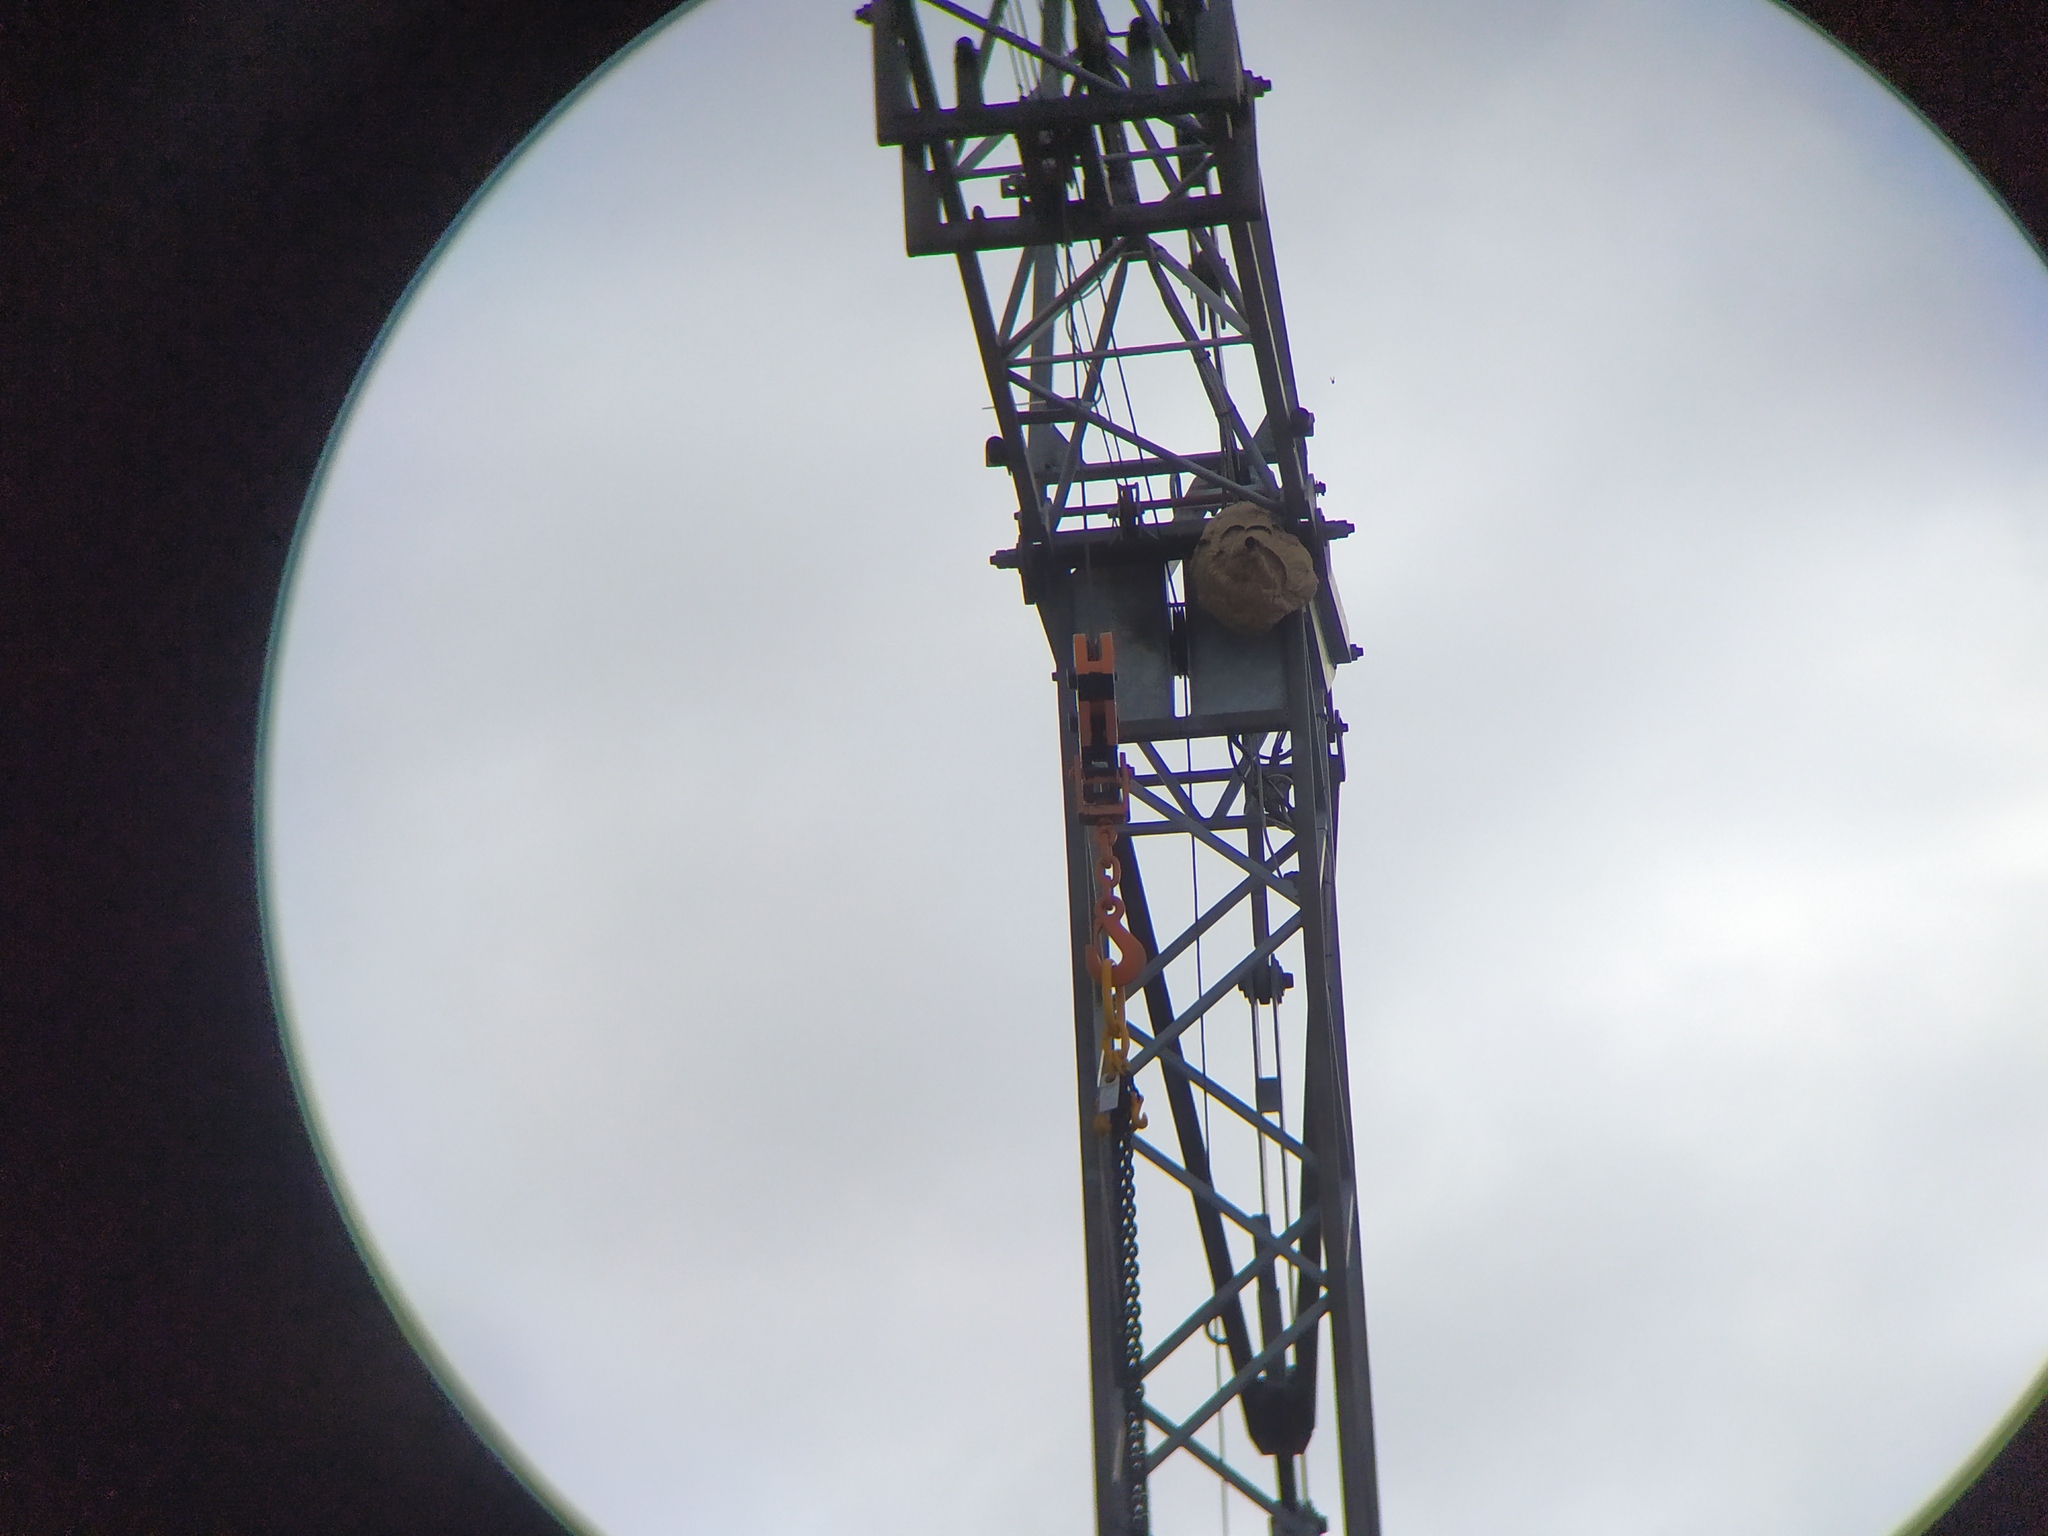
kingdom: Animalia
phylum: Arthropoda
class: Insecta
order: Hymenoptera
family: Vespidae
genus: Vespa
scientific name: Vespa velutina
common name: Asian hornet
